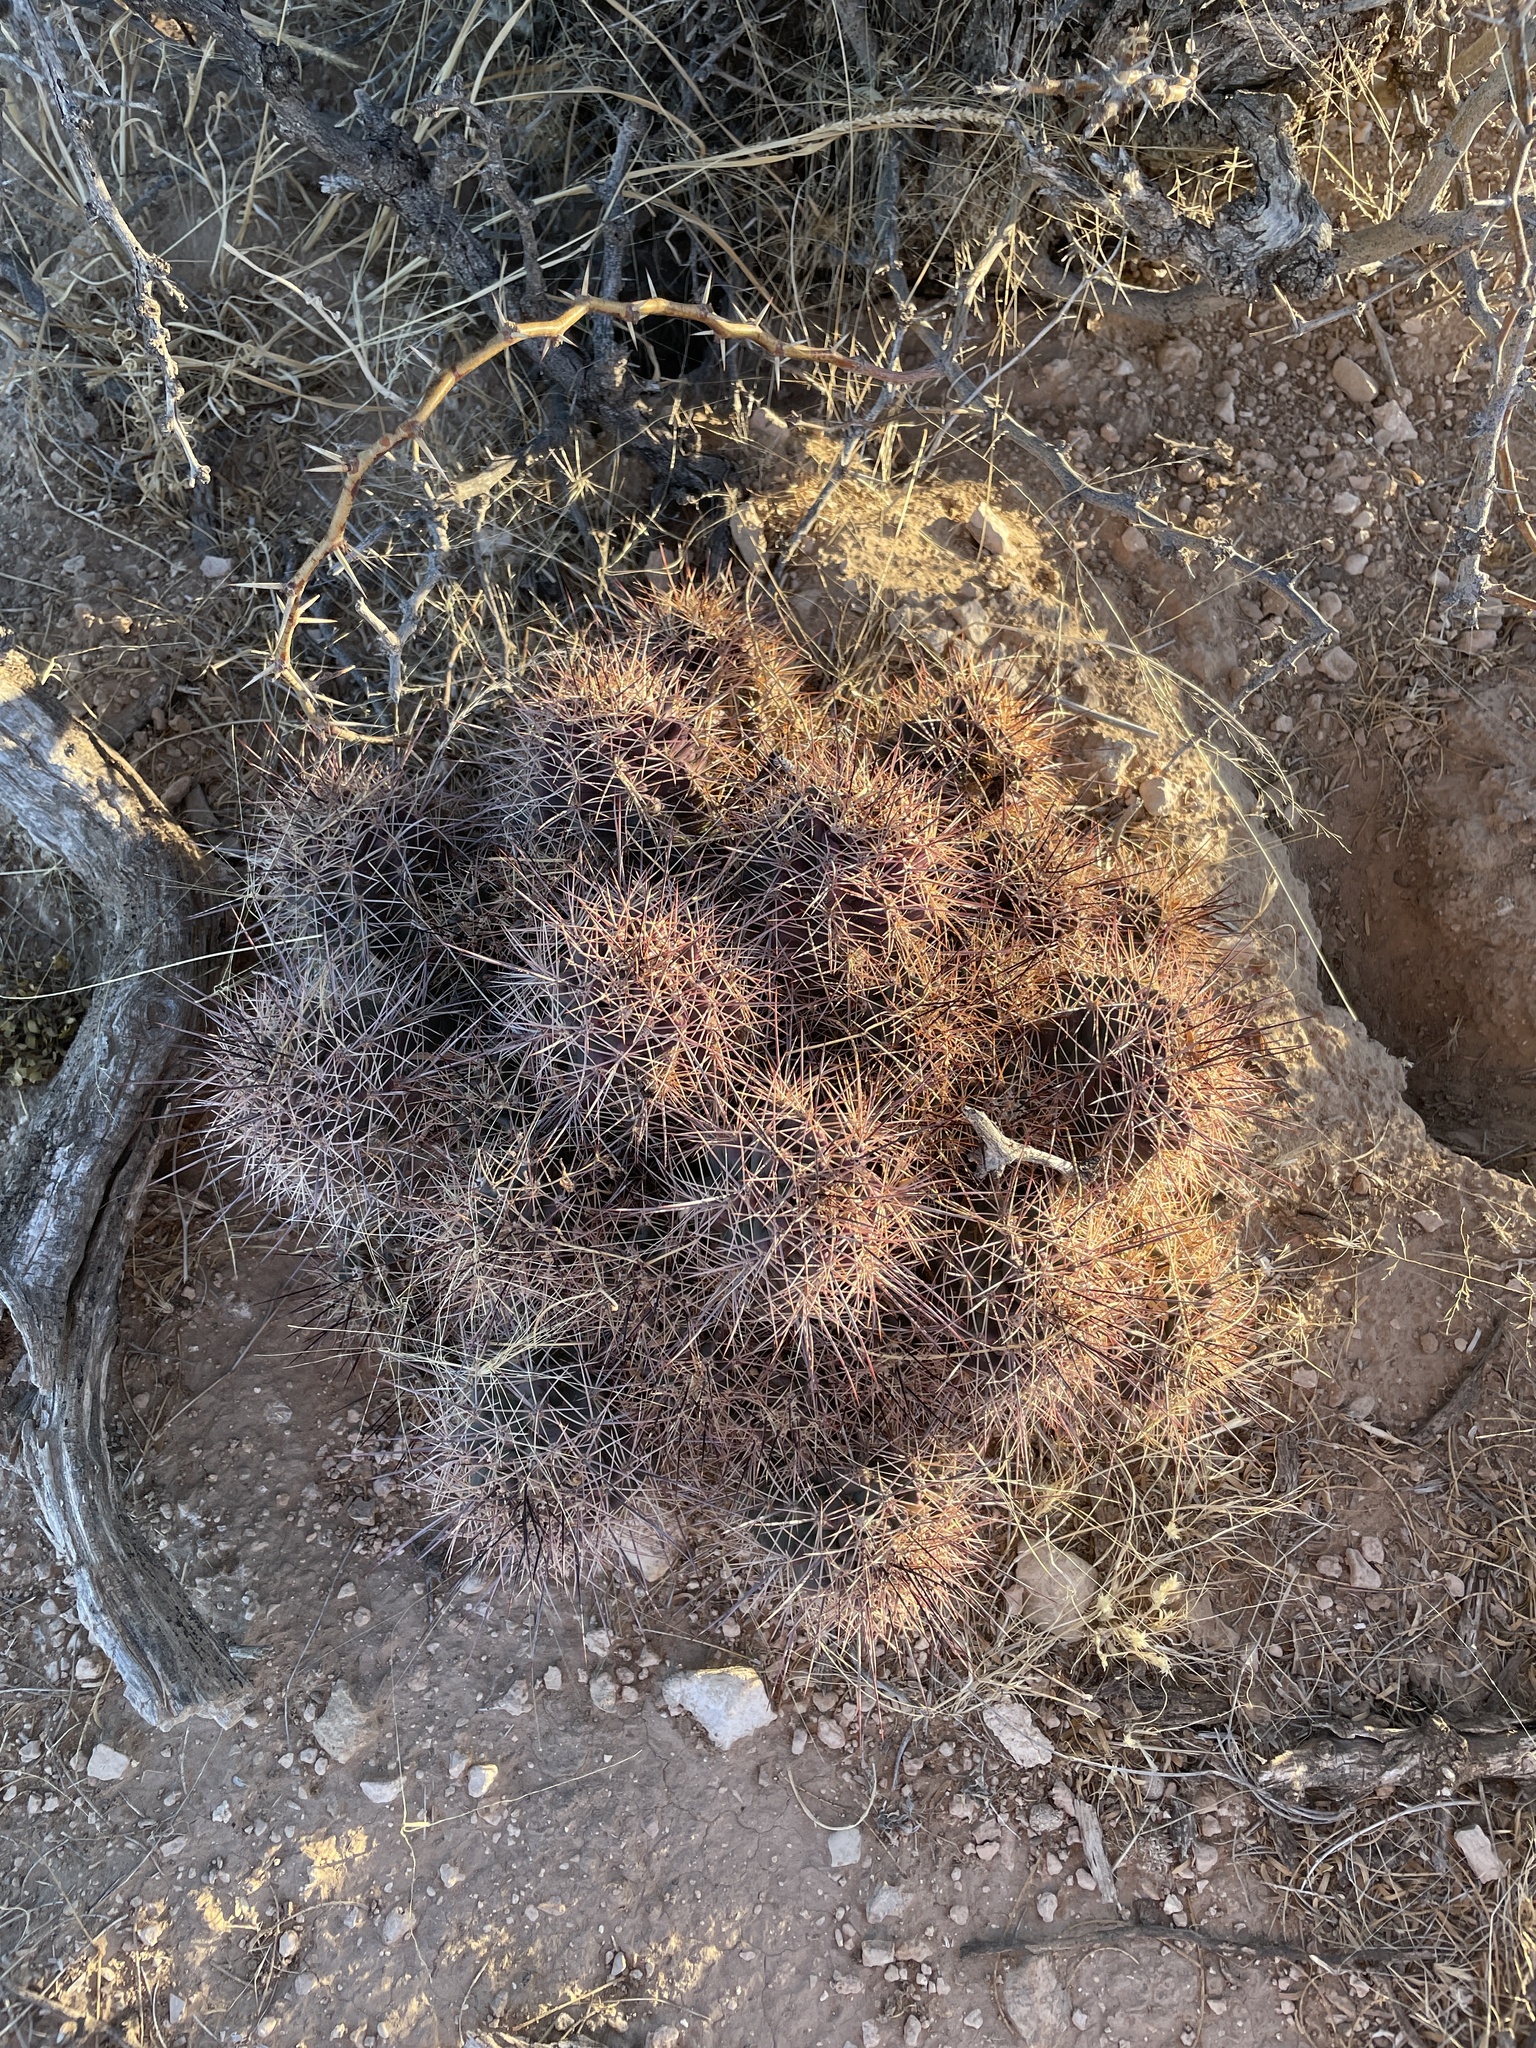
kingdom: Plantae
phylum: Tracheophyta
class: Magnoliopsida
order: Caryophyllales
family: Cactaceae
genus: Echinocereus
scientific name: Echinocereus coccineus
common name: Scarlet hedgehog cactus
